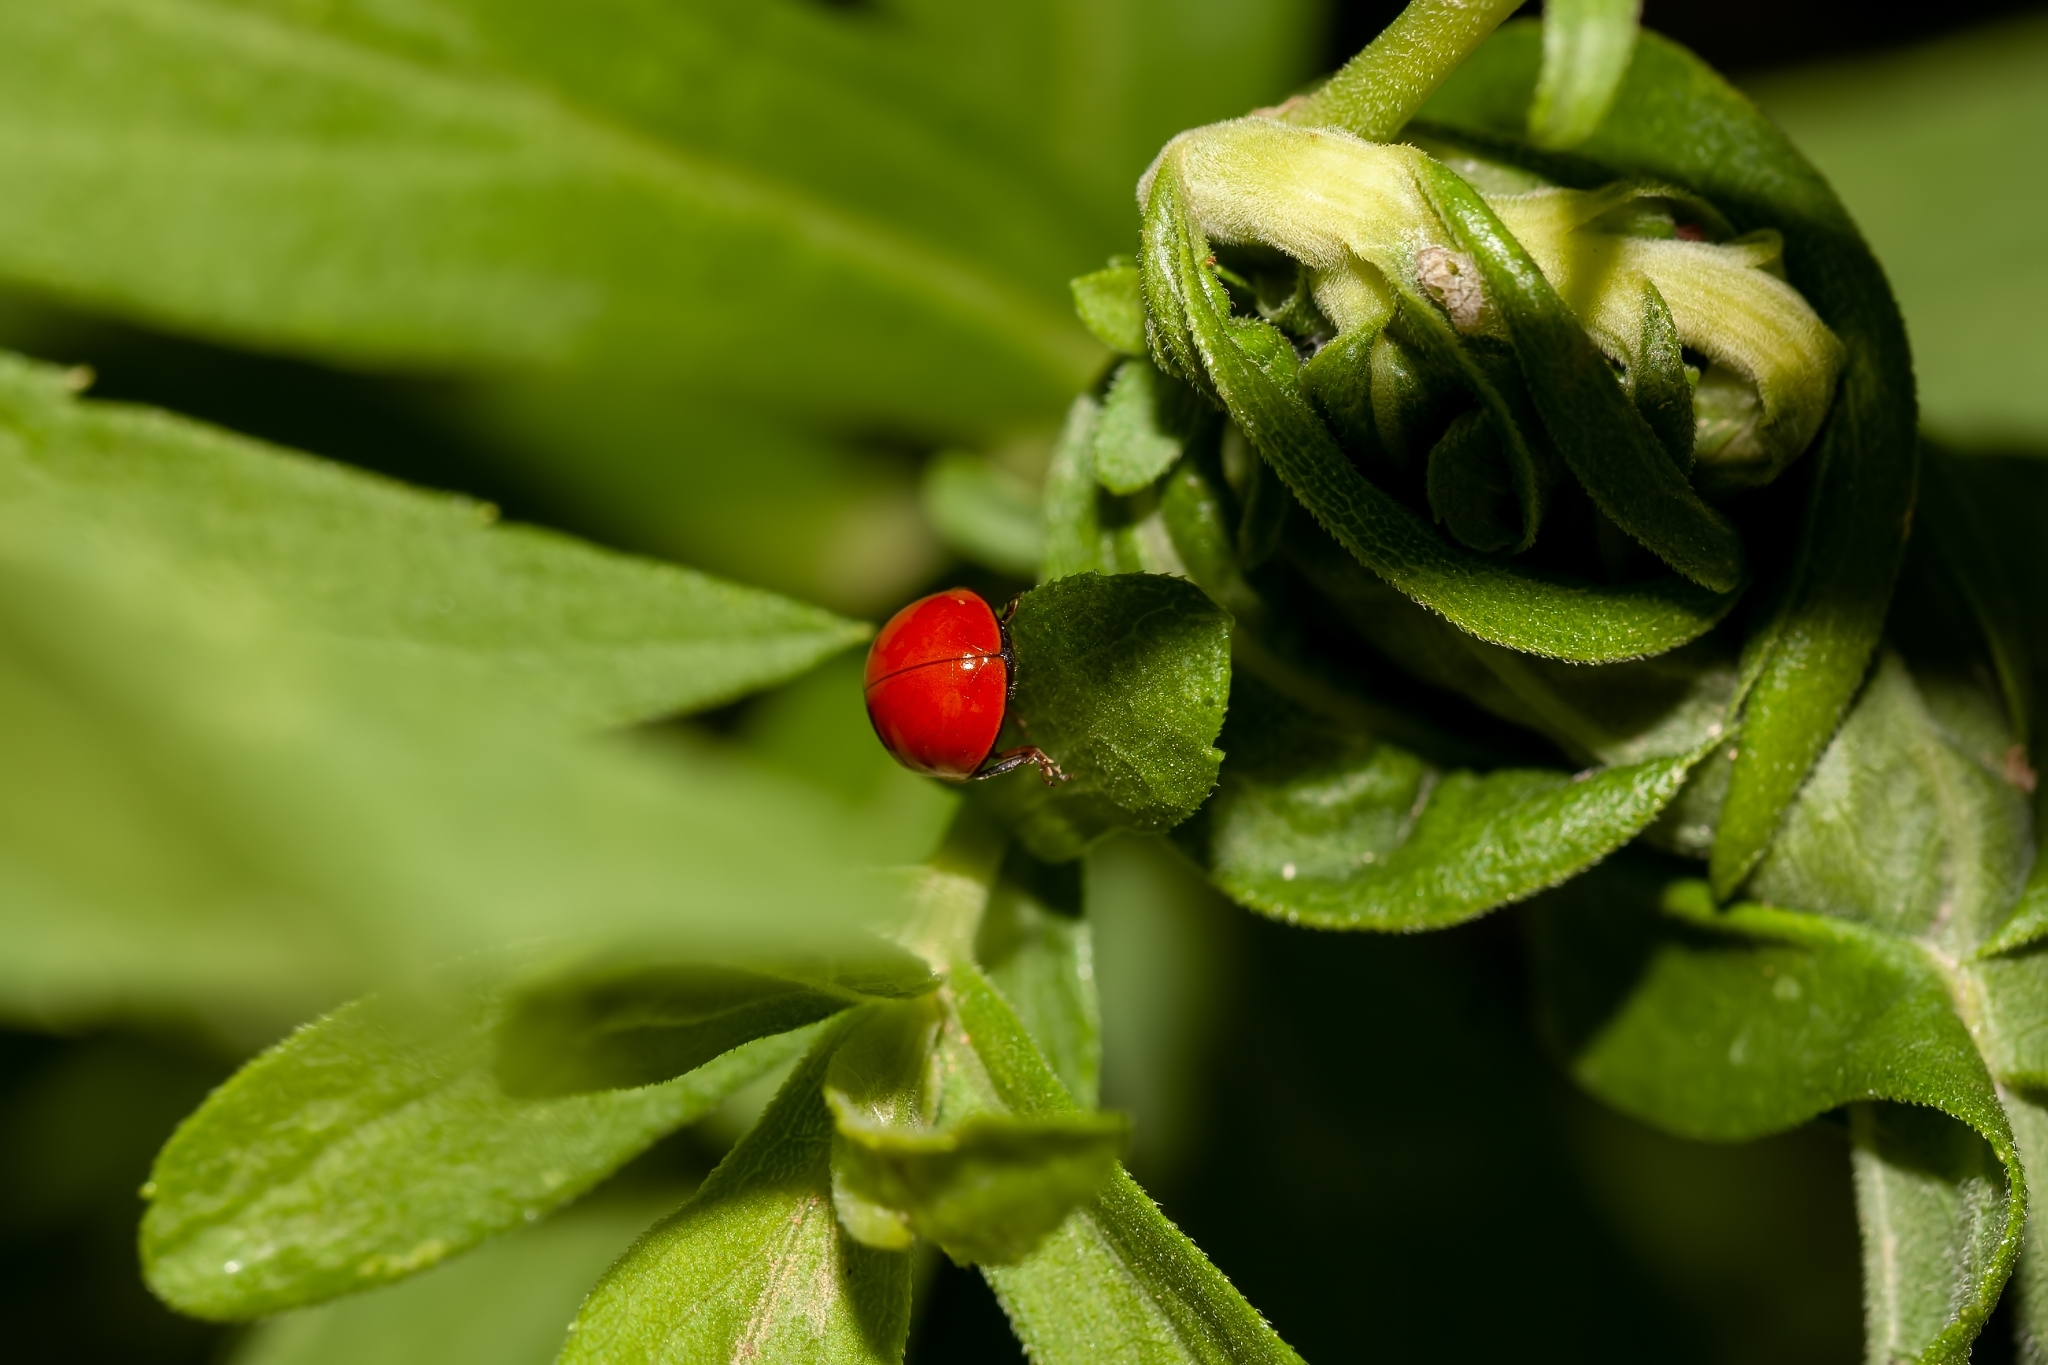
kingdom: Animalia
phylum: Arthropoda
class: Insecta
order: Coleoptera
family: Coccinellidae
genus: Cycloneda
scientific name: Cycloneda
